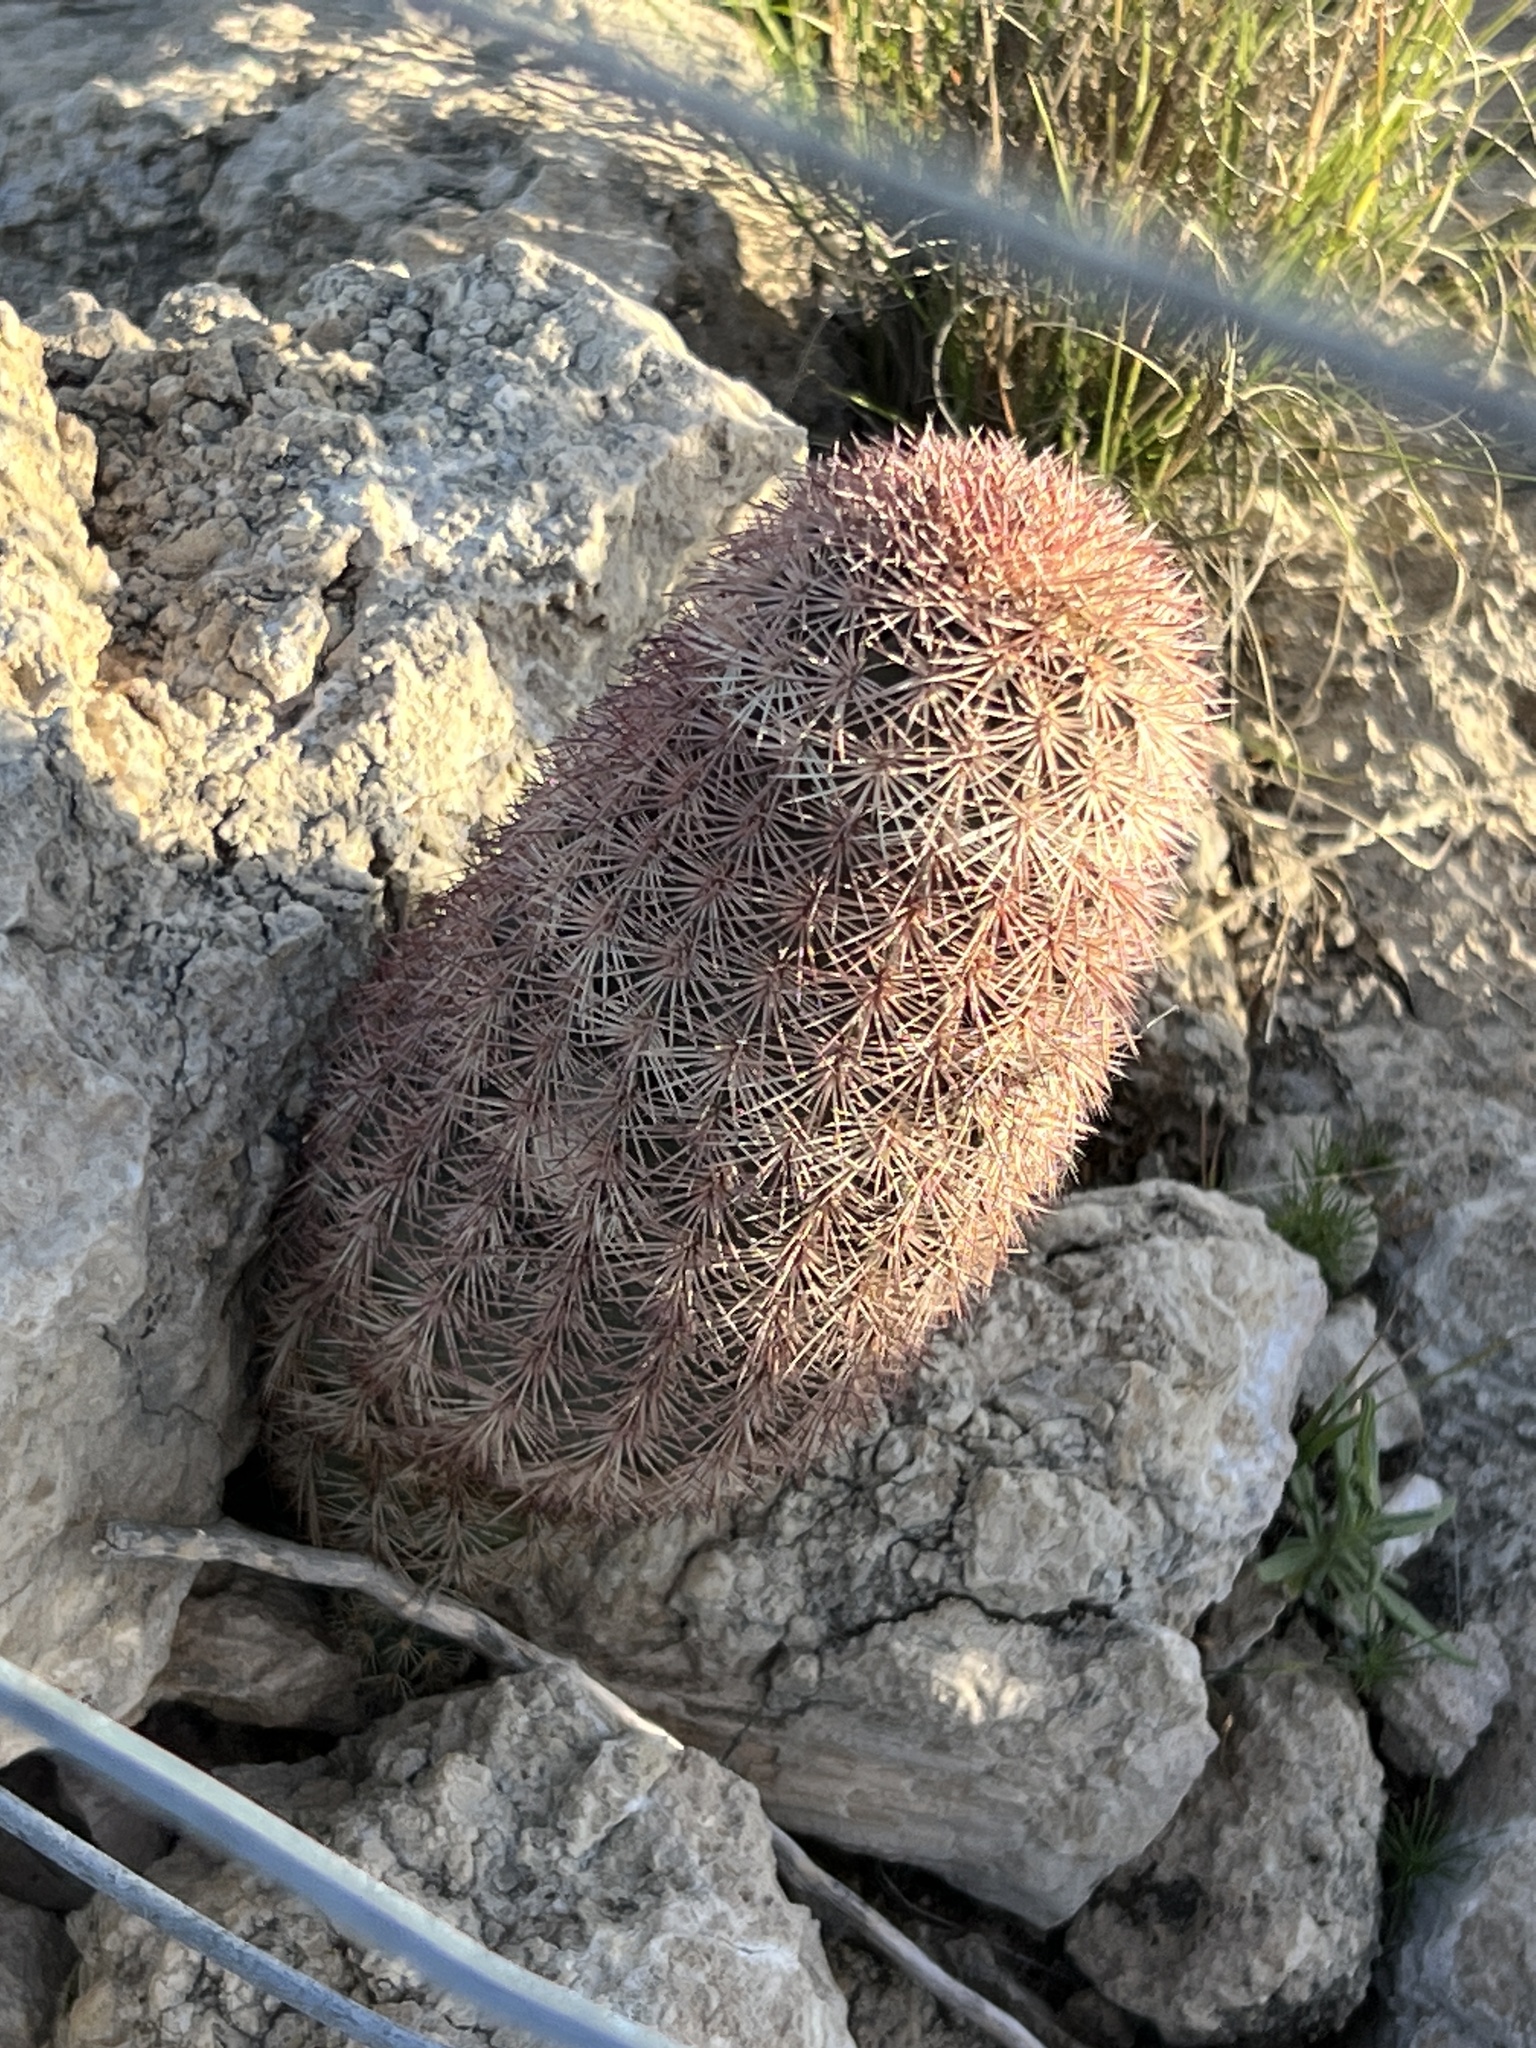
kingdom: Plantae
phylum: Tracheophyta
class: Magnoliopsida
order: Caryophyllales
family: Cactaceae
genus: Echinocereus
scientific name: Echinocereus dasyacanthus
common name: Spiny hedgehog cactus
